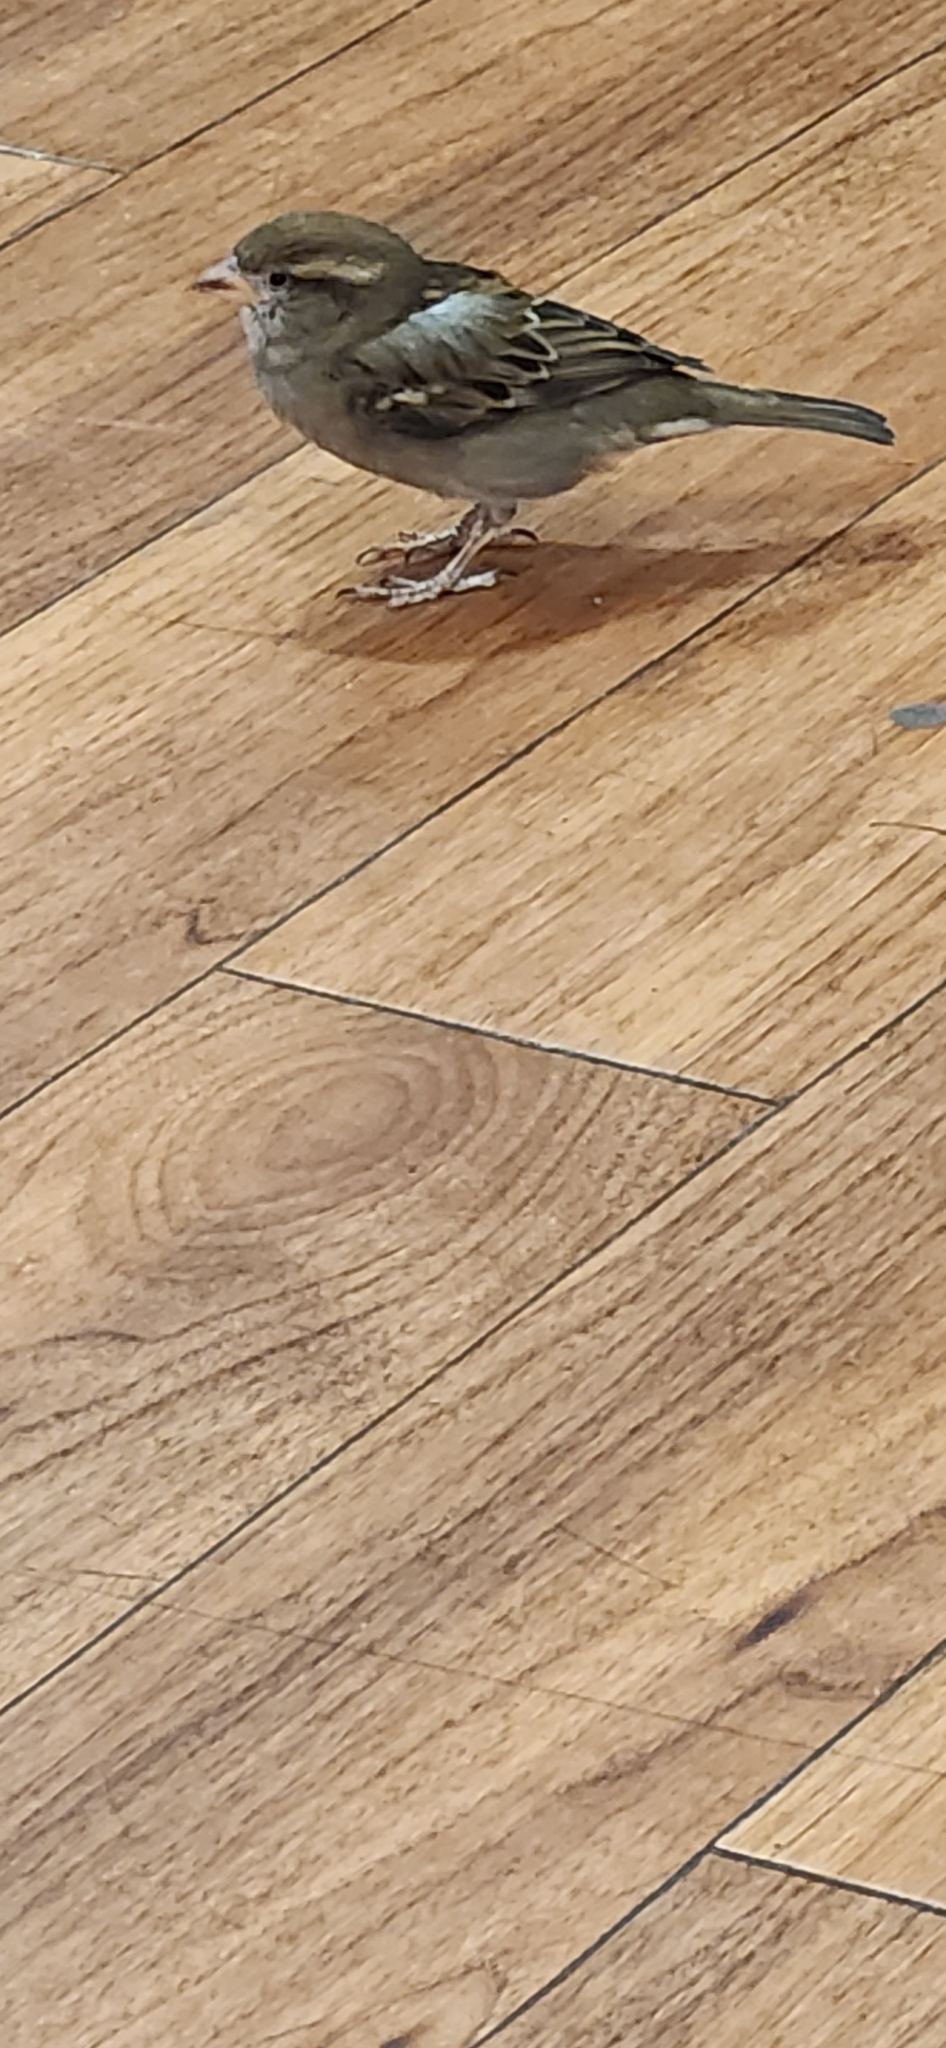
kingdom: Animalia
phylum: Chordata
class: Aves
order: Passeriformes
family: Passeridae
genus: Passer
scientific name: Passer domesticus
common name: House sparrow
